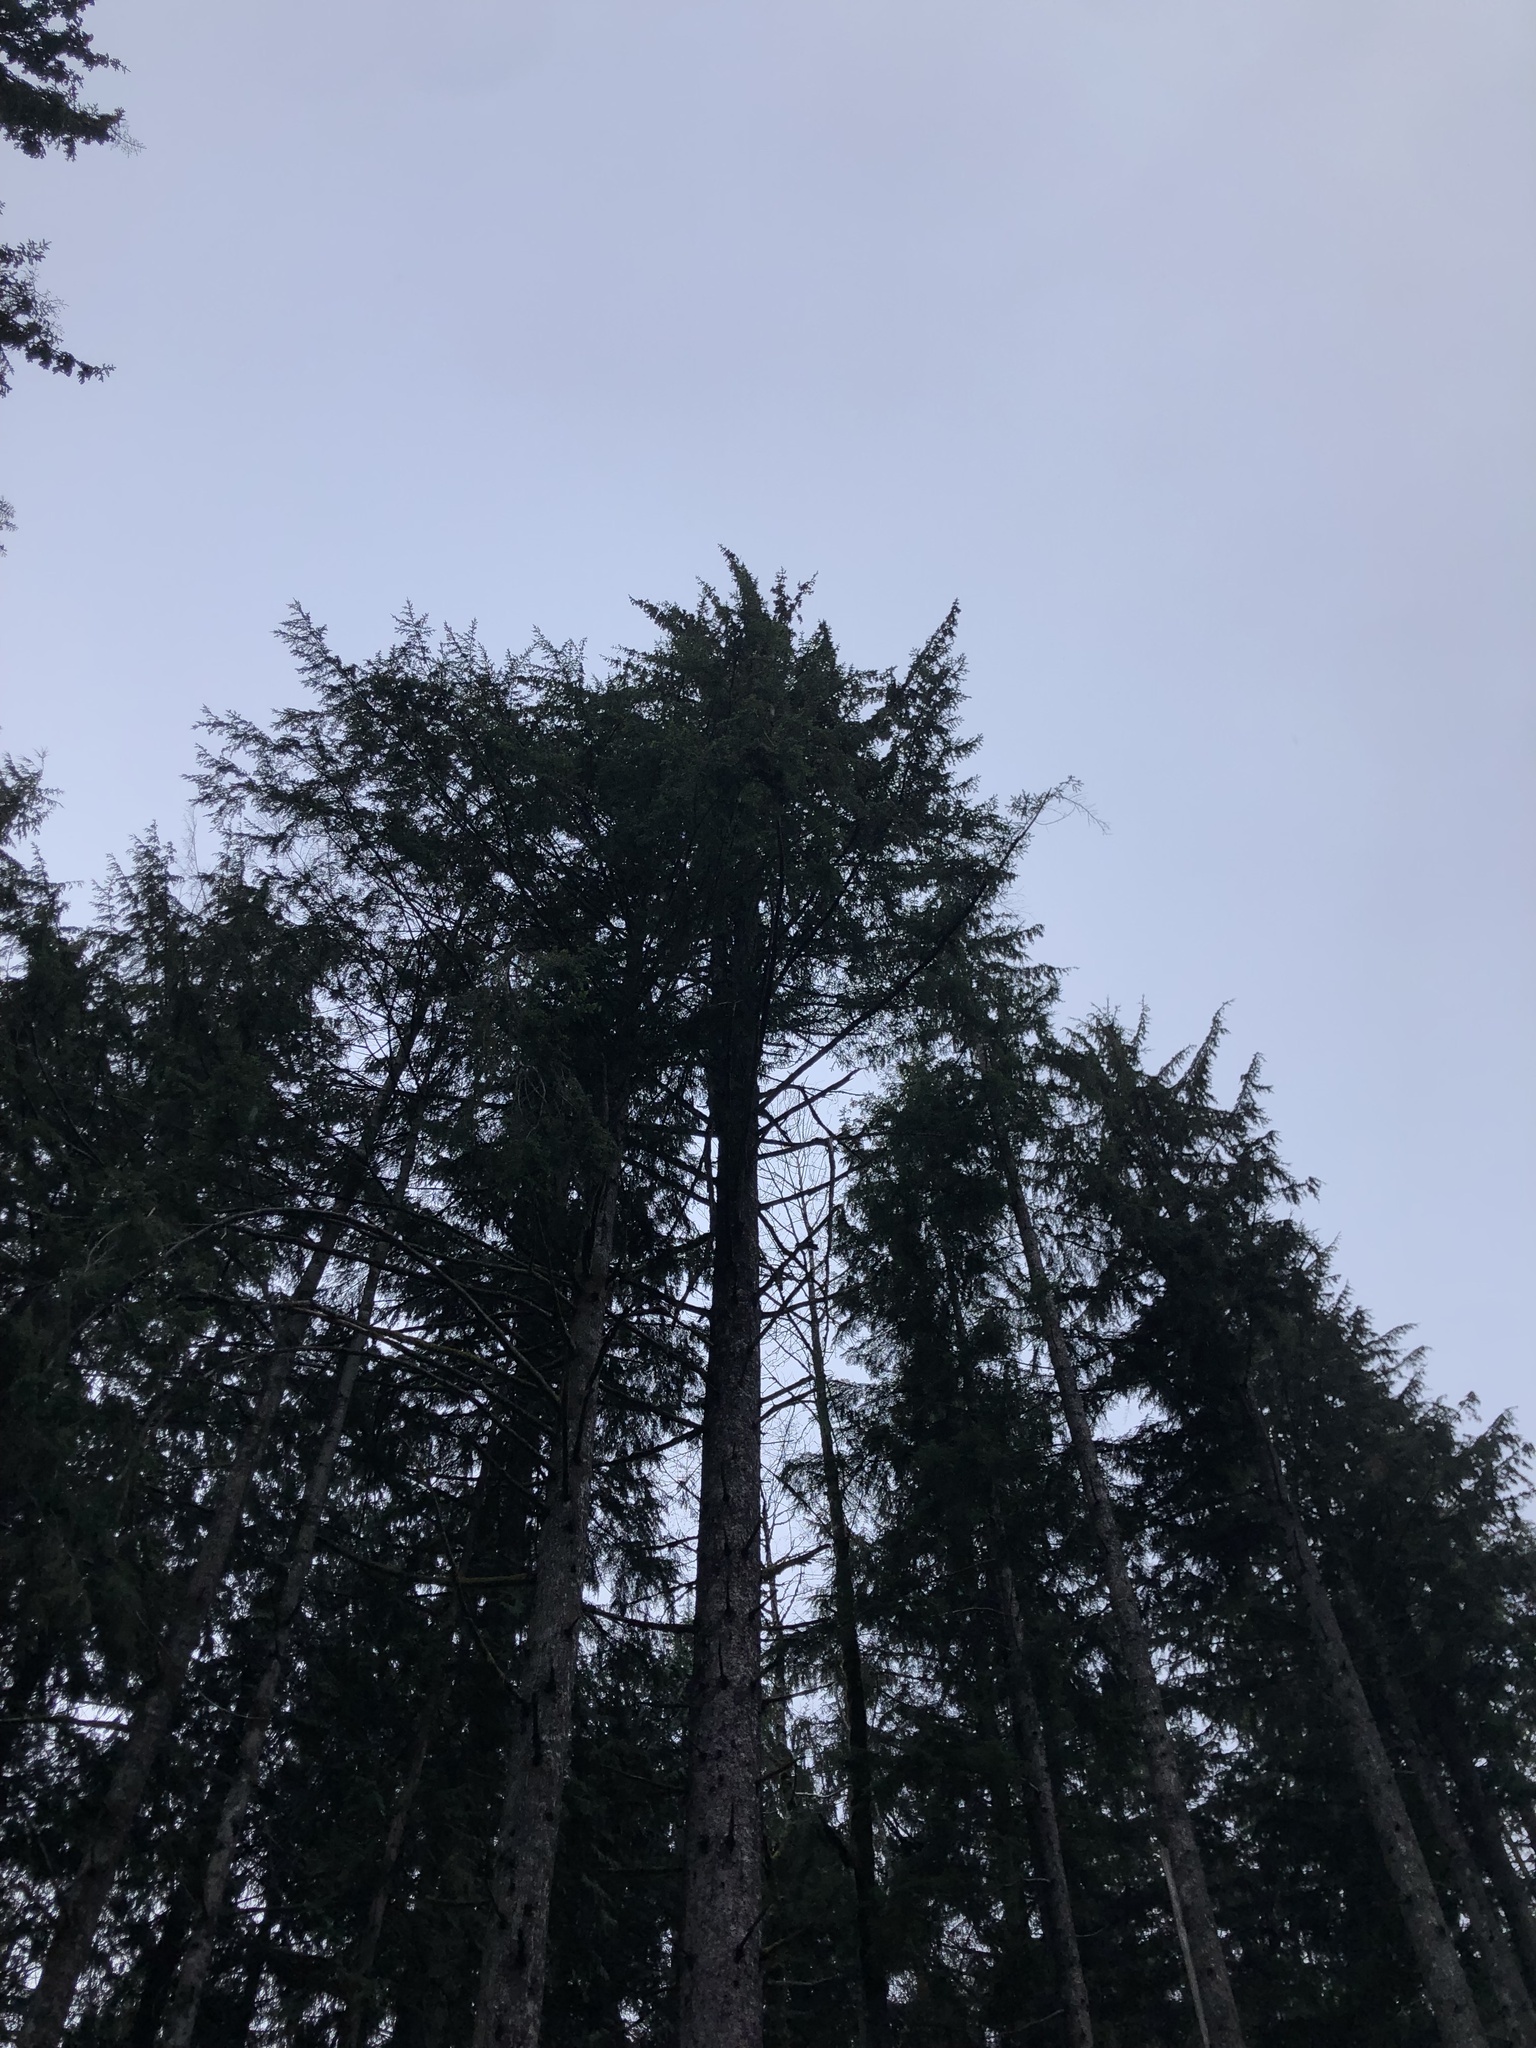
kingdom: Plantae
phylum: Tracheophyta
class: Pinopsida
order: Pinales
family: Pinaceae
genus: Picea
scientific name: Picea sitchensis
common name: Sitka spruce
